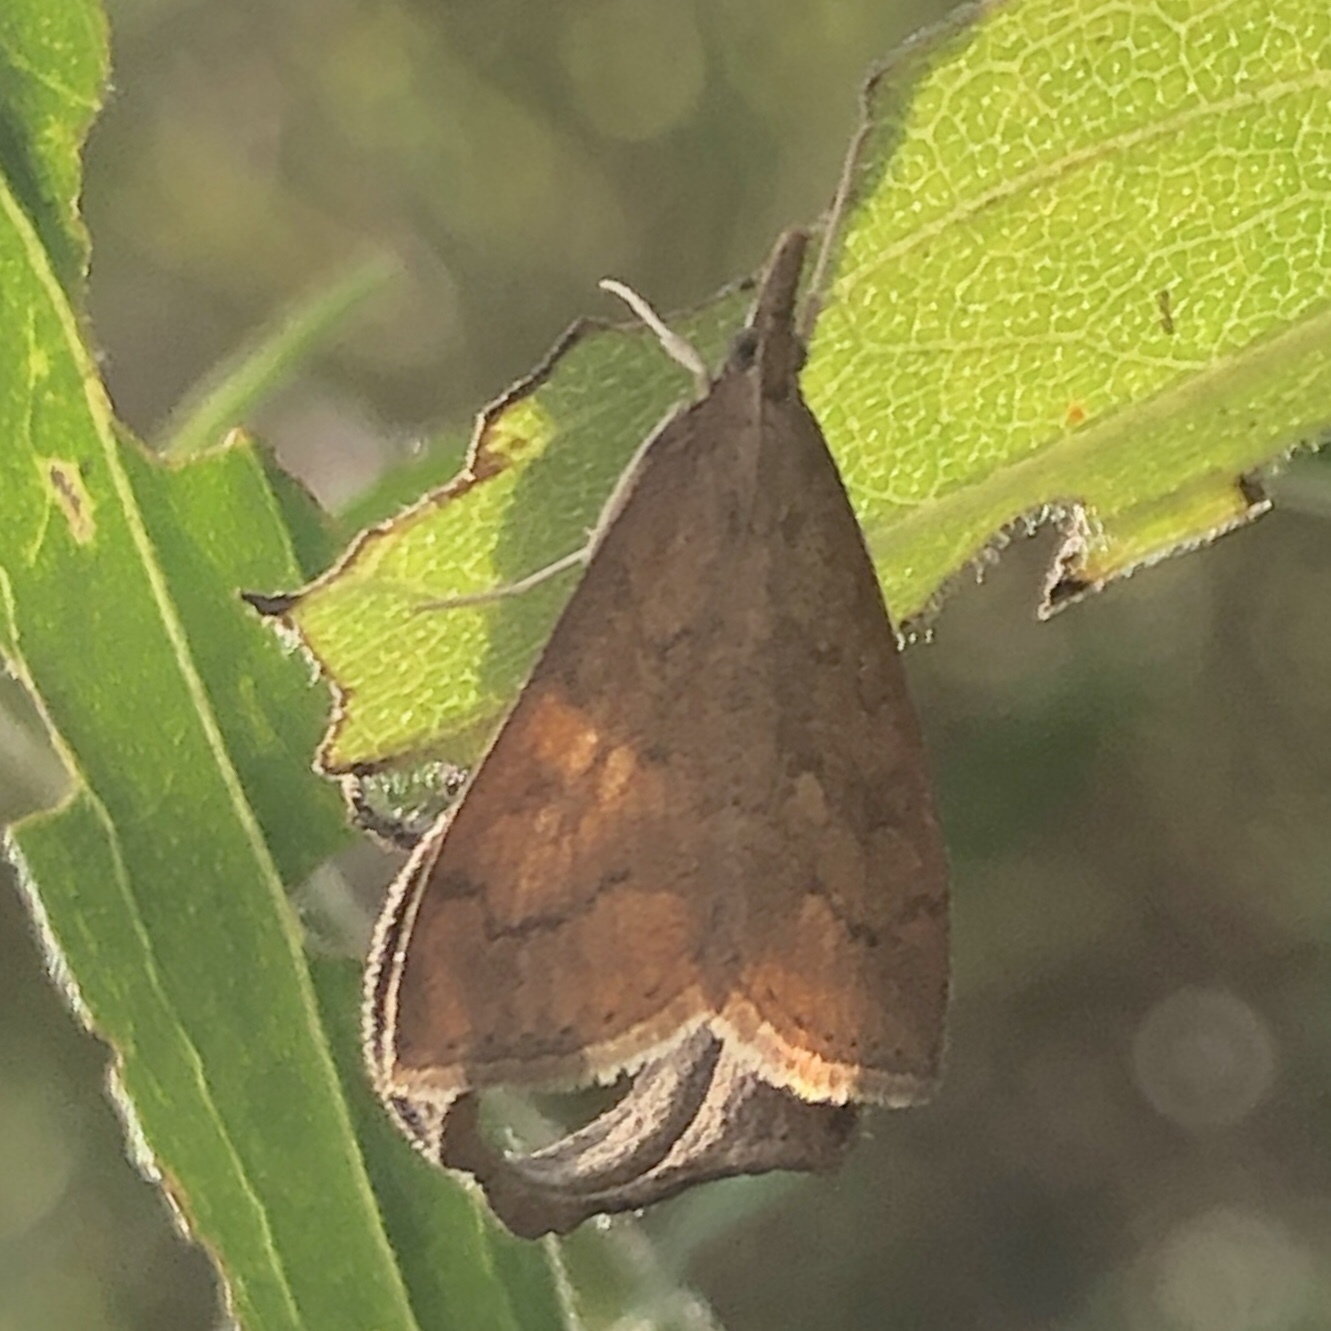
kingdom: Animalia
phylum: Arthropoda
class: Insecta
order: Lepidoptera
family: Crambidae
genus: Udea
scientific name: Udea rubigalis
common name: Celery leaftier moth
